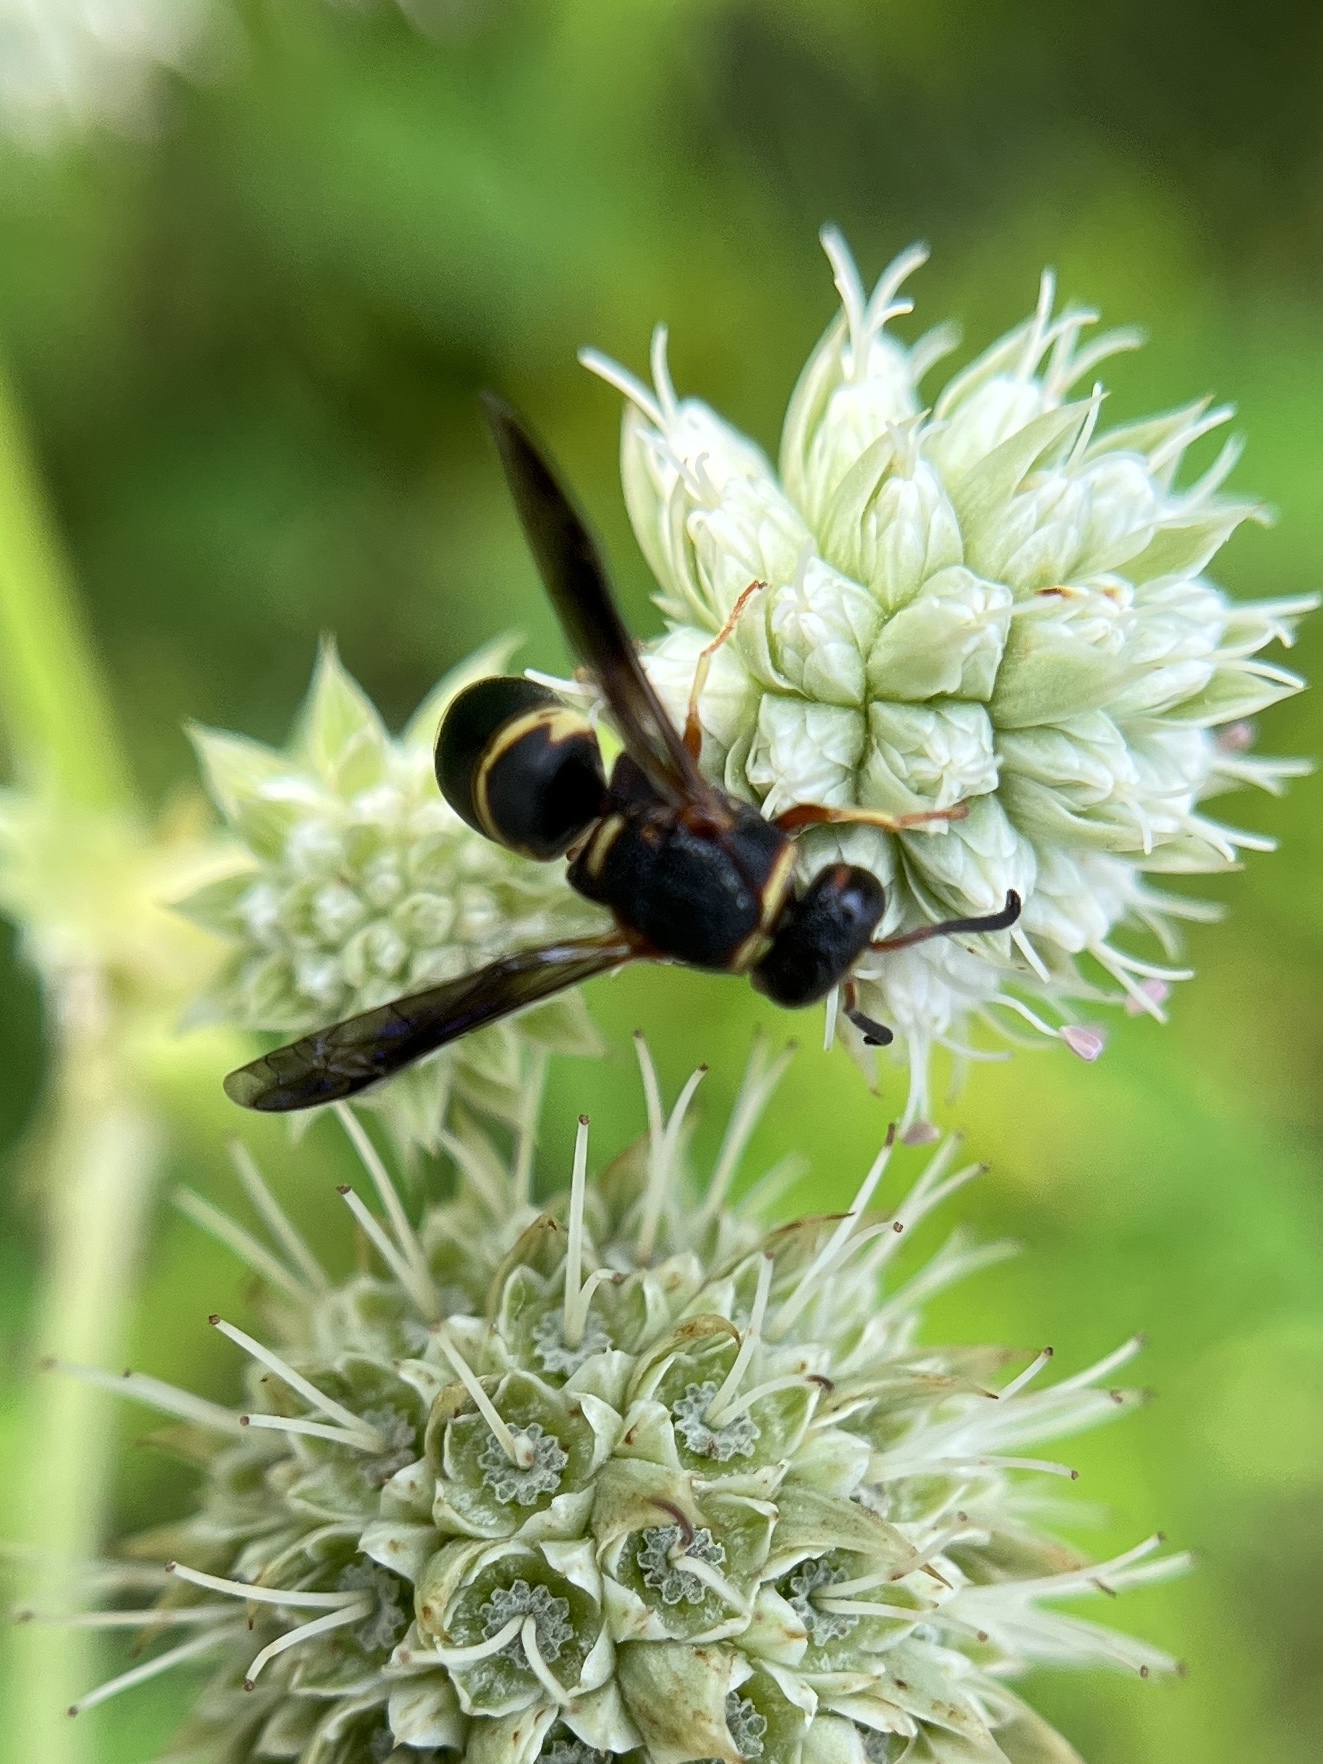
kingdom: Animalia
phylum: Arthropoda
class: Insecta
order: Hymenoptera
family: Eumenidae
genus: Euodynerus
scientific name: Euodynerus hidalgo
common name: Wasp
